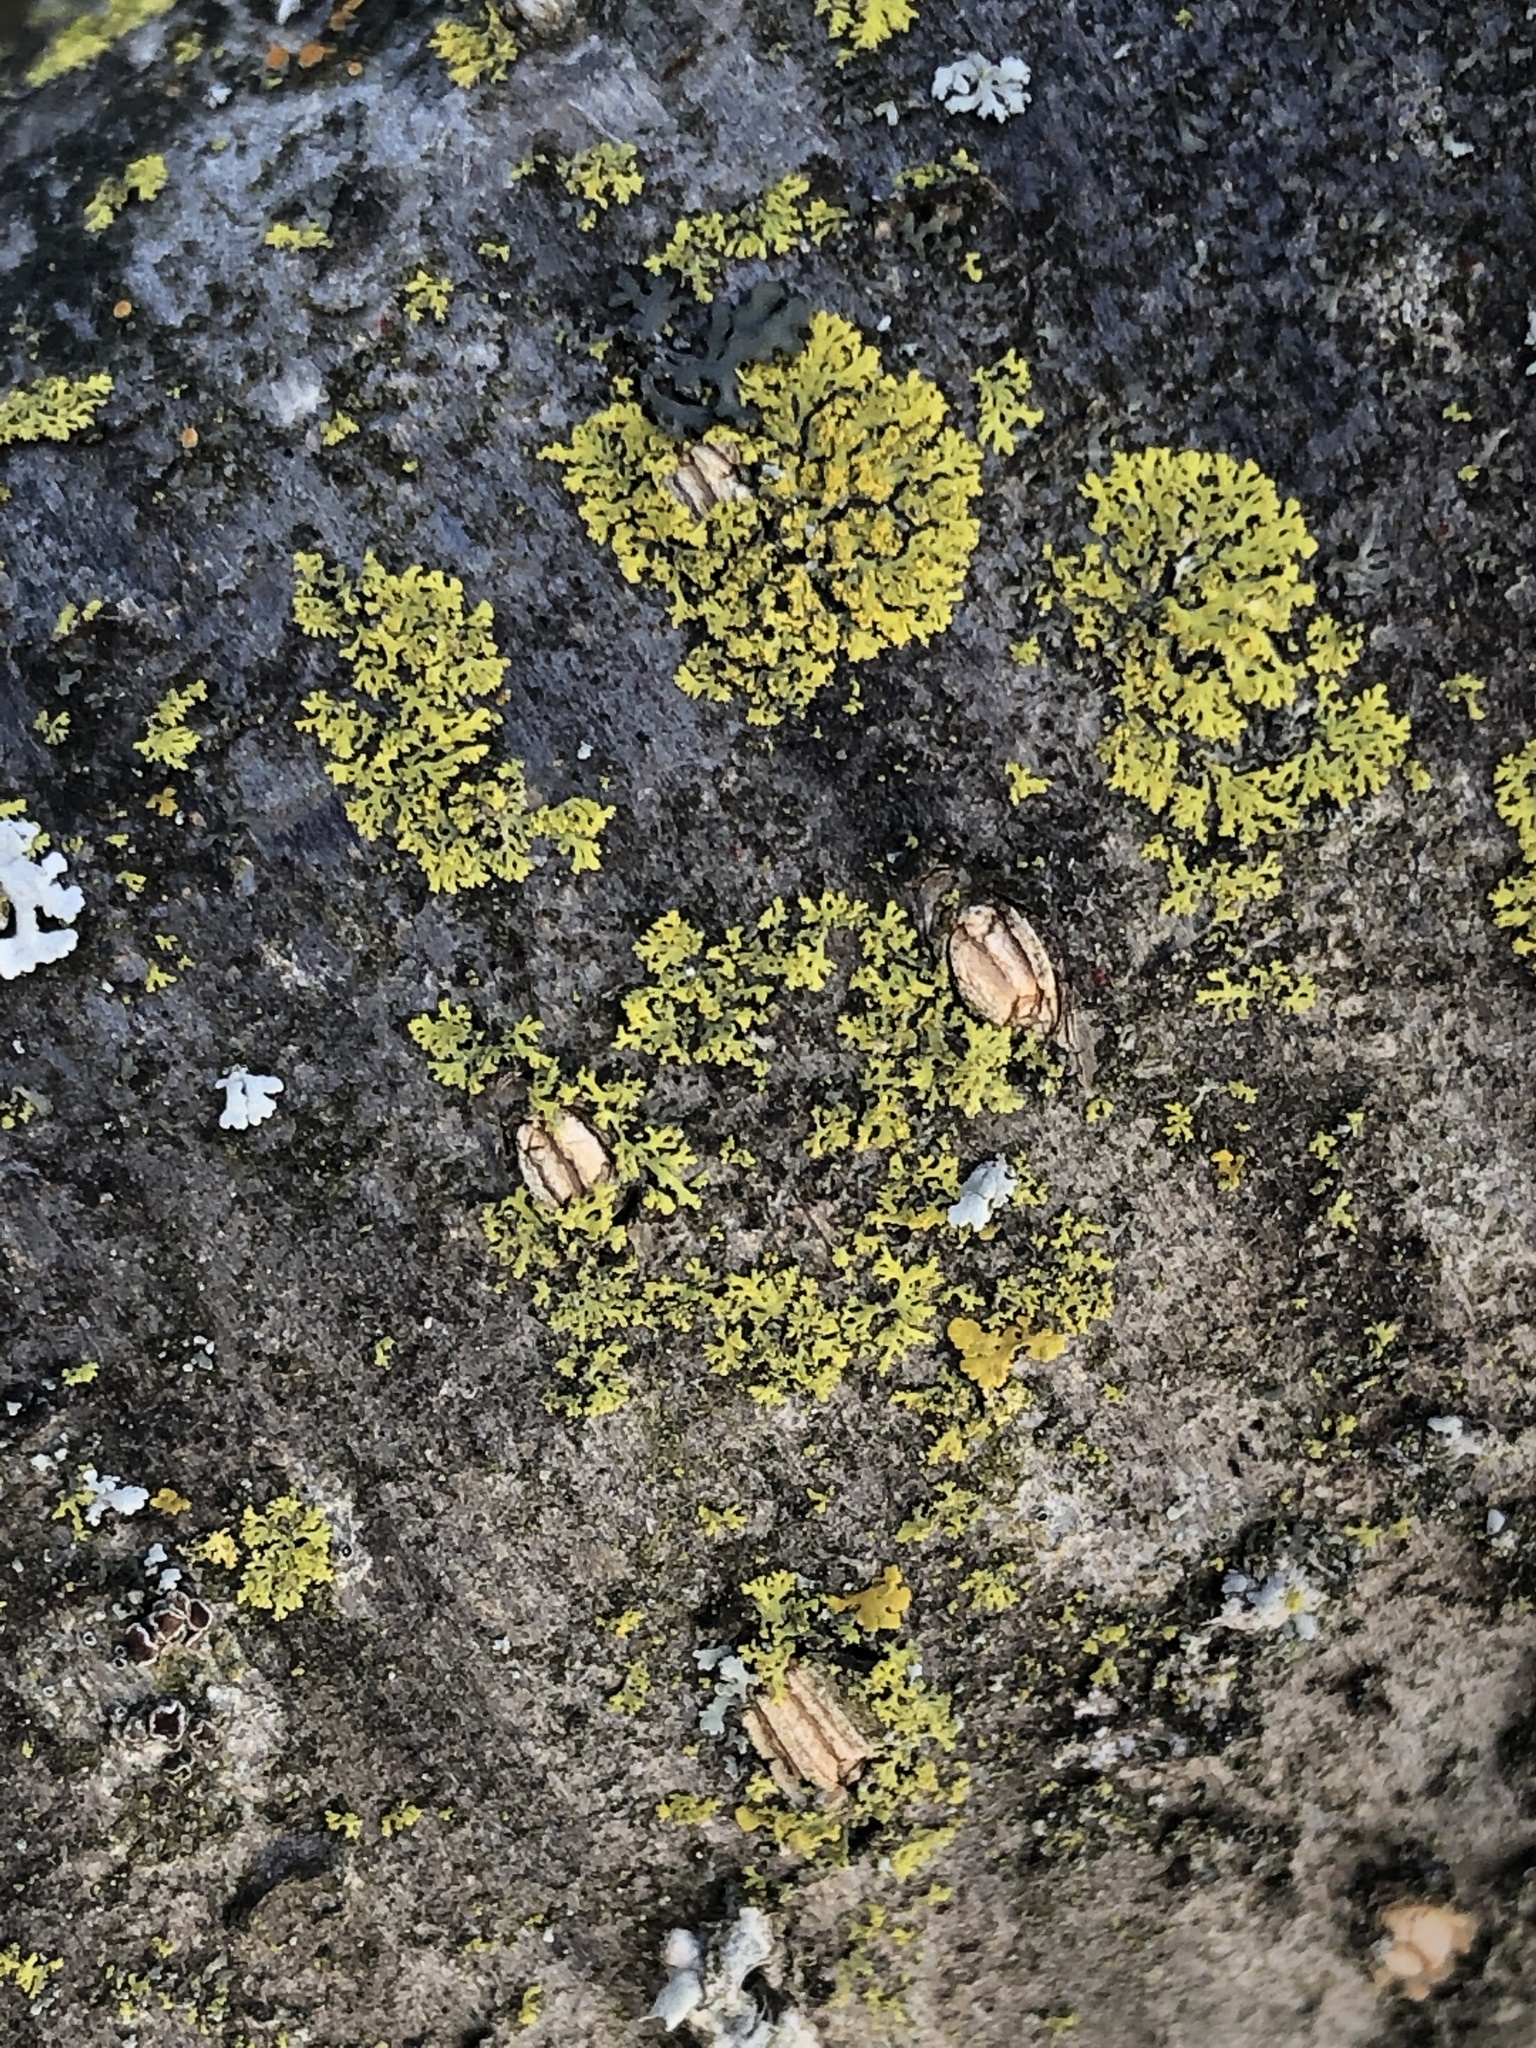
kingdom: Fungi
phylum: Ascomycota
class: Candelariomycetes
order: Candelariales
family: Candelariaceae
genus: Candelaria
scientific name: Candelaria concolor
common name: Candleflame lichen
